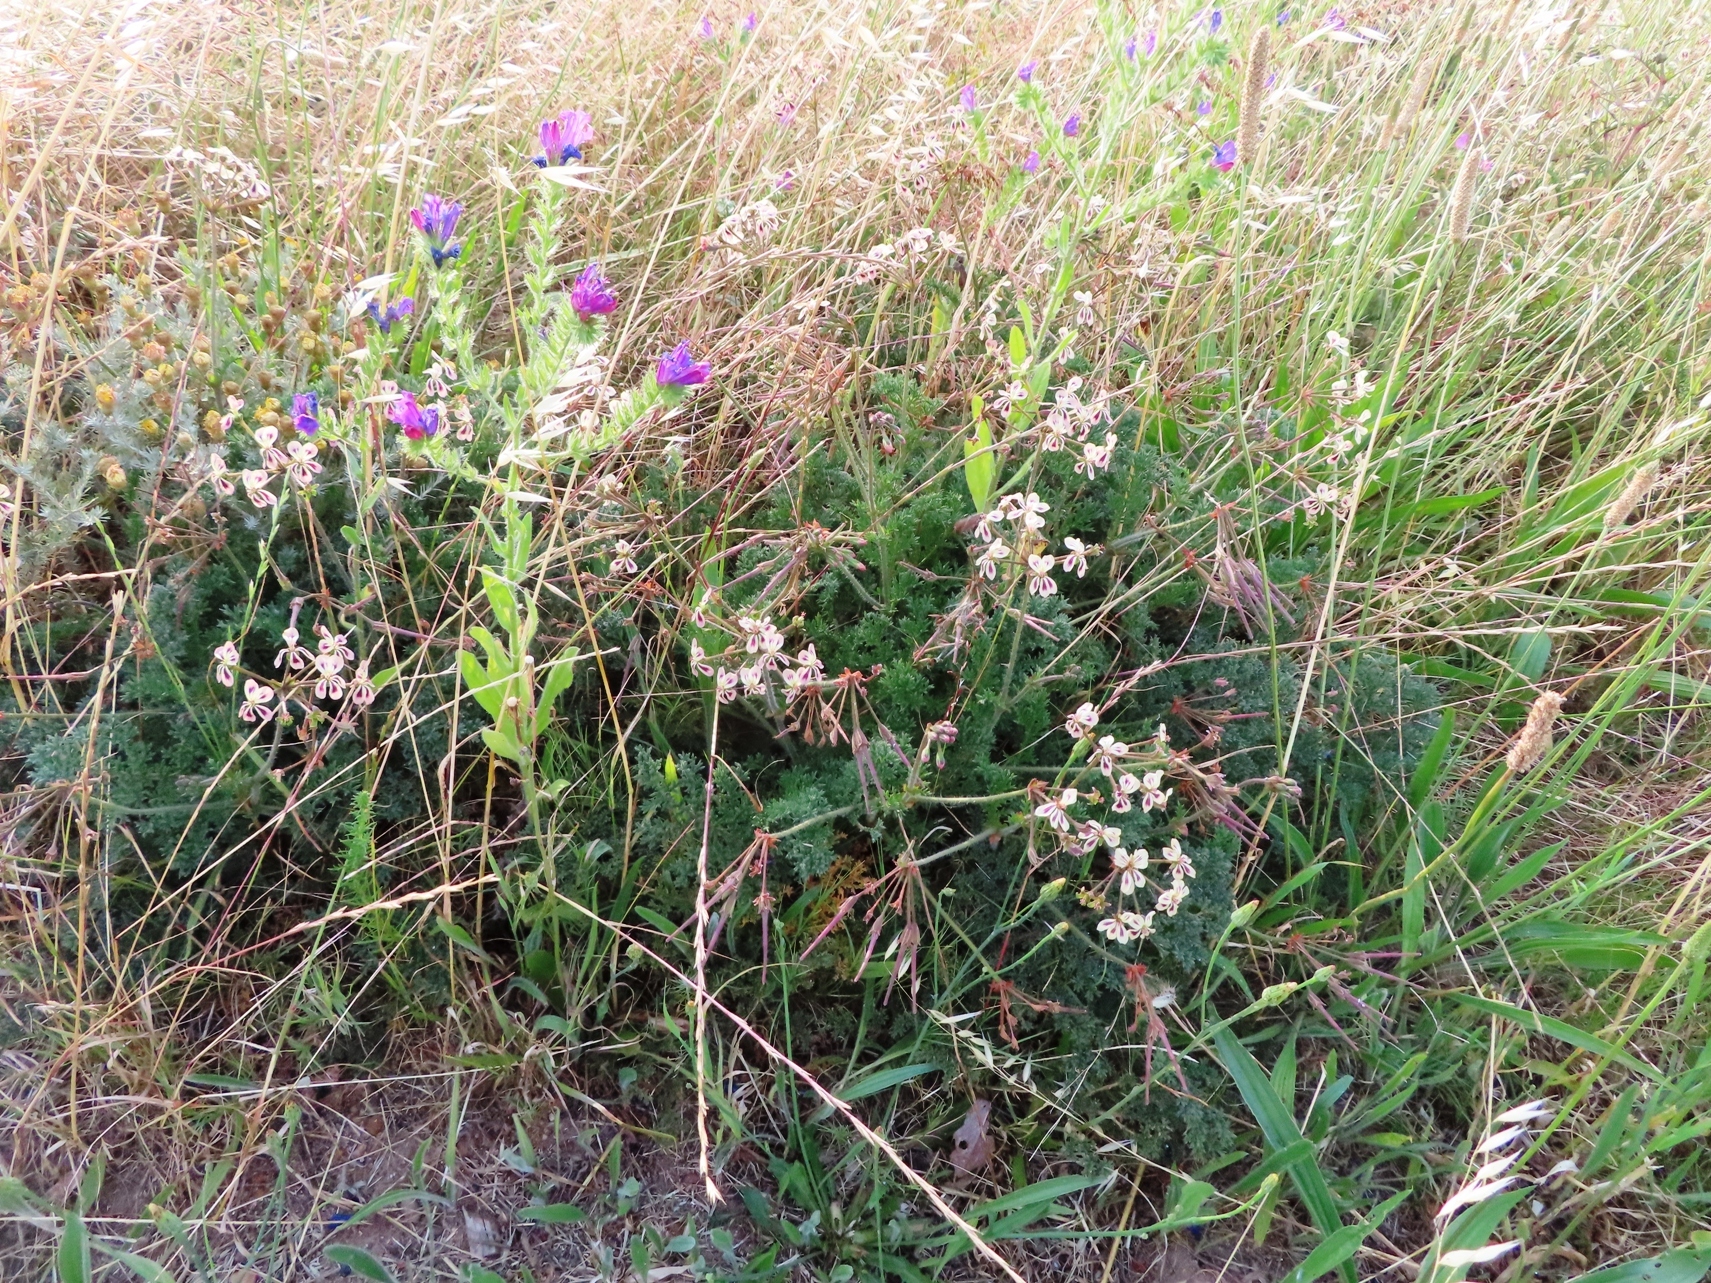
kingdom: Plantae
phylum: Tracheophyta
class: Magnoliopsida
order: Geraniales
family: Geraniaceae
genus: Pelargonium
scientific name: Pelargonium triste
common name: Night-scent pelargonium
